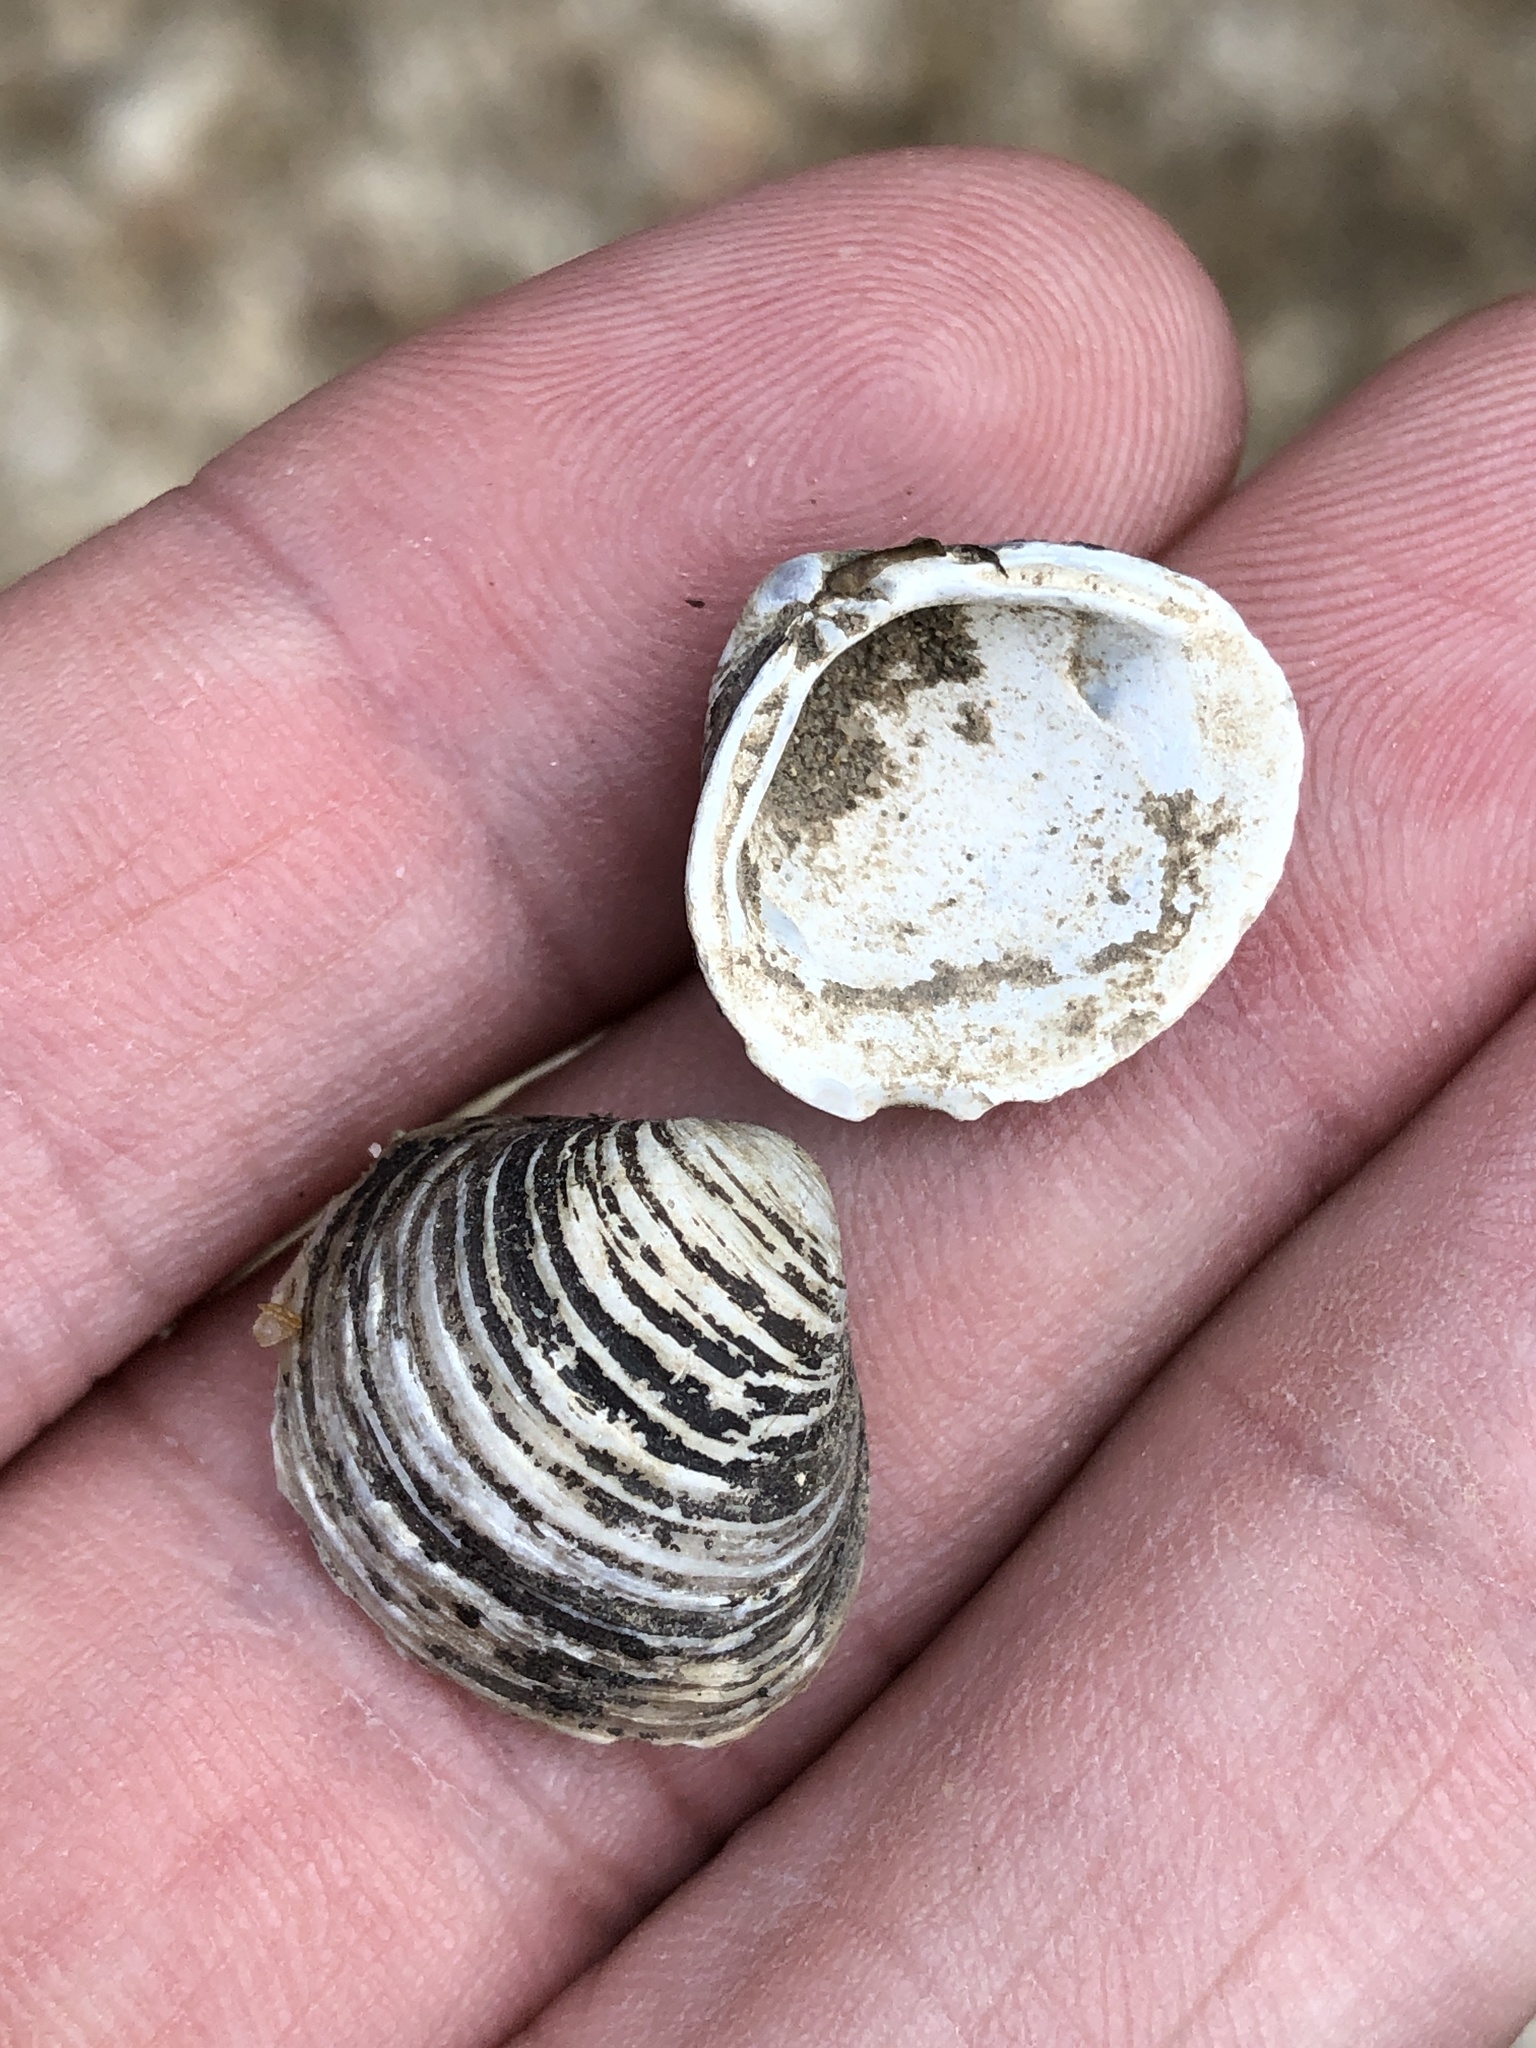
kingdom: Animalia
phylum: Mollusca
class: Bivalvia
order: Venerida
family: Cyrenidae
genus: Corbicula
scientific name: Corbicula fluminea
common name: Asian clam
